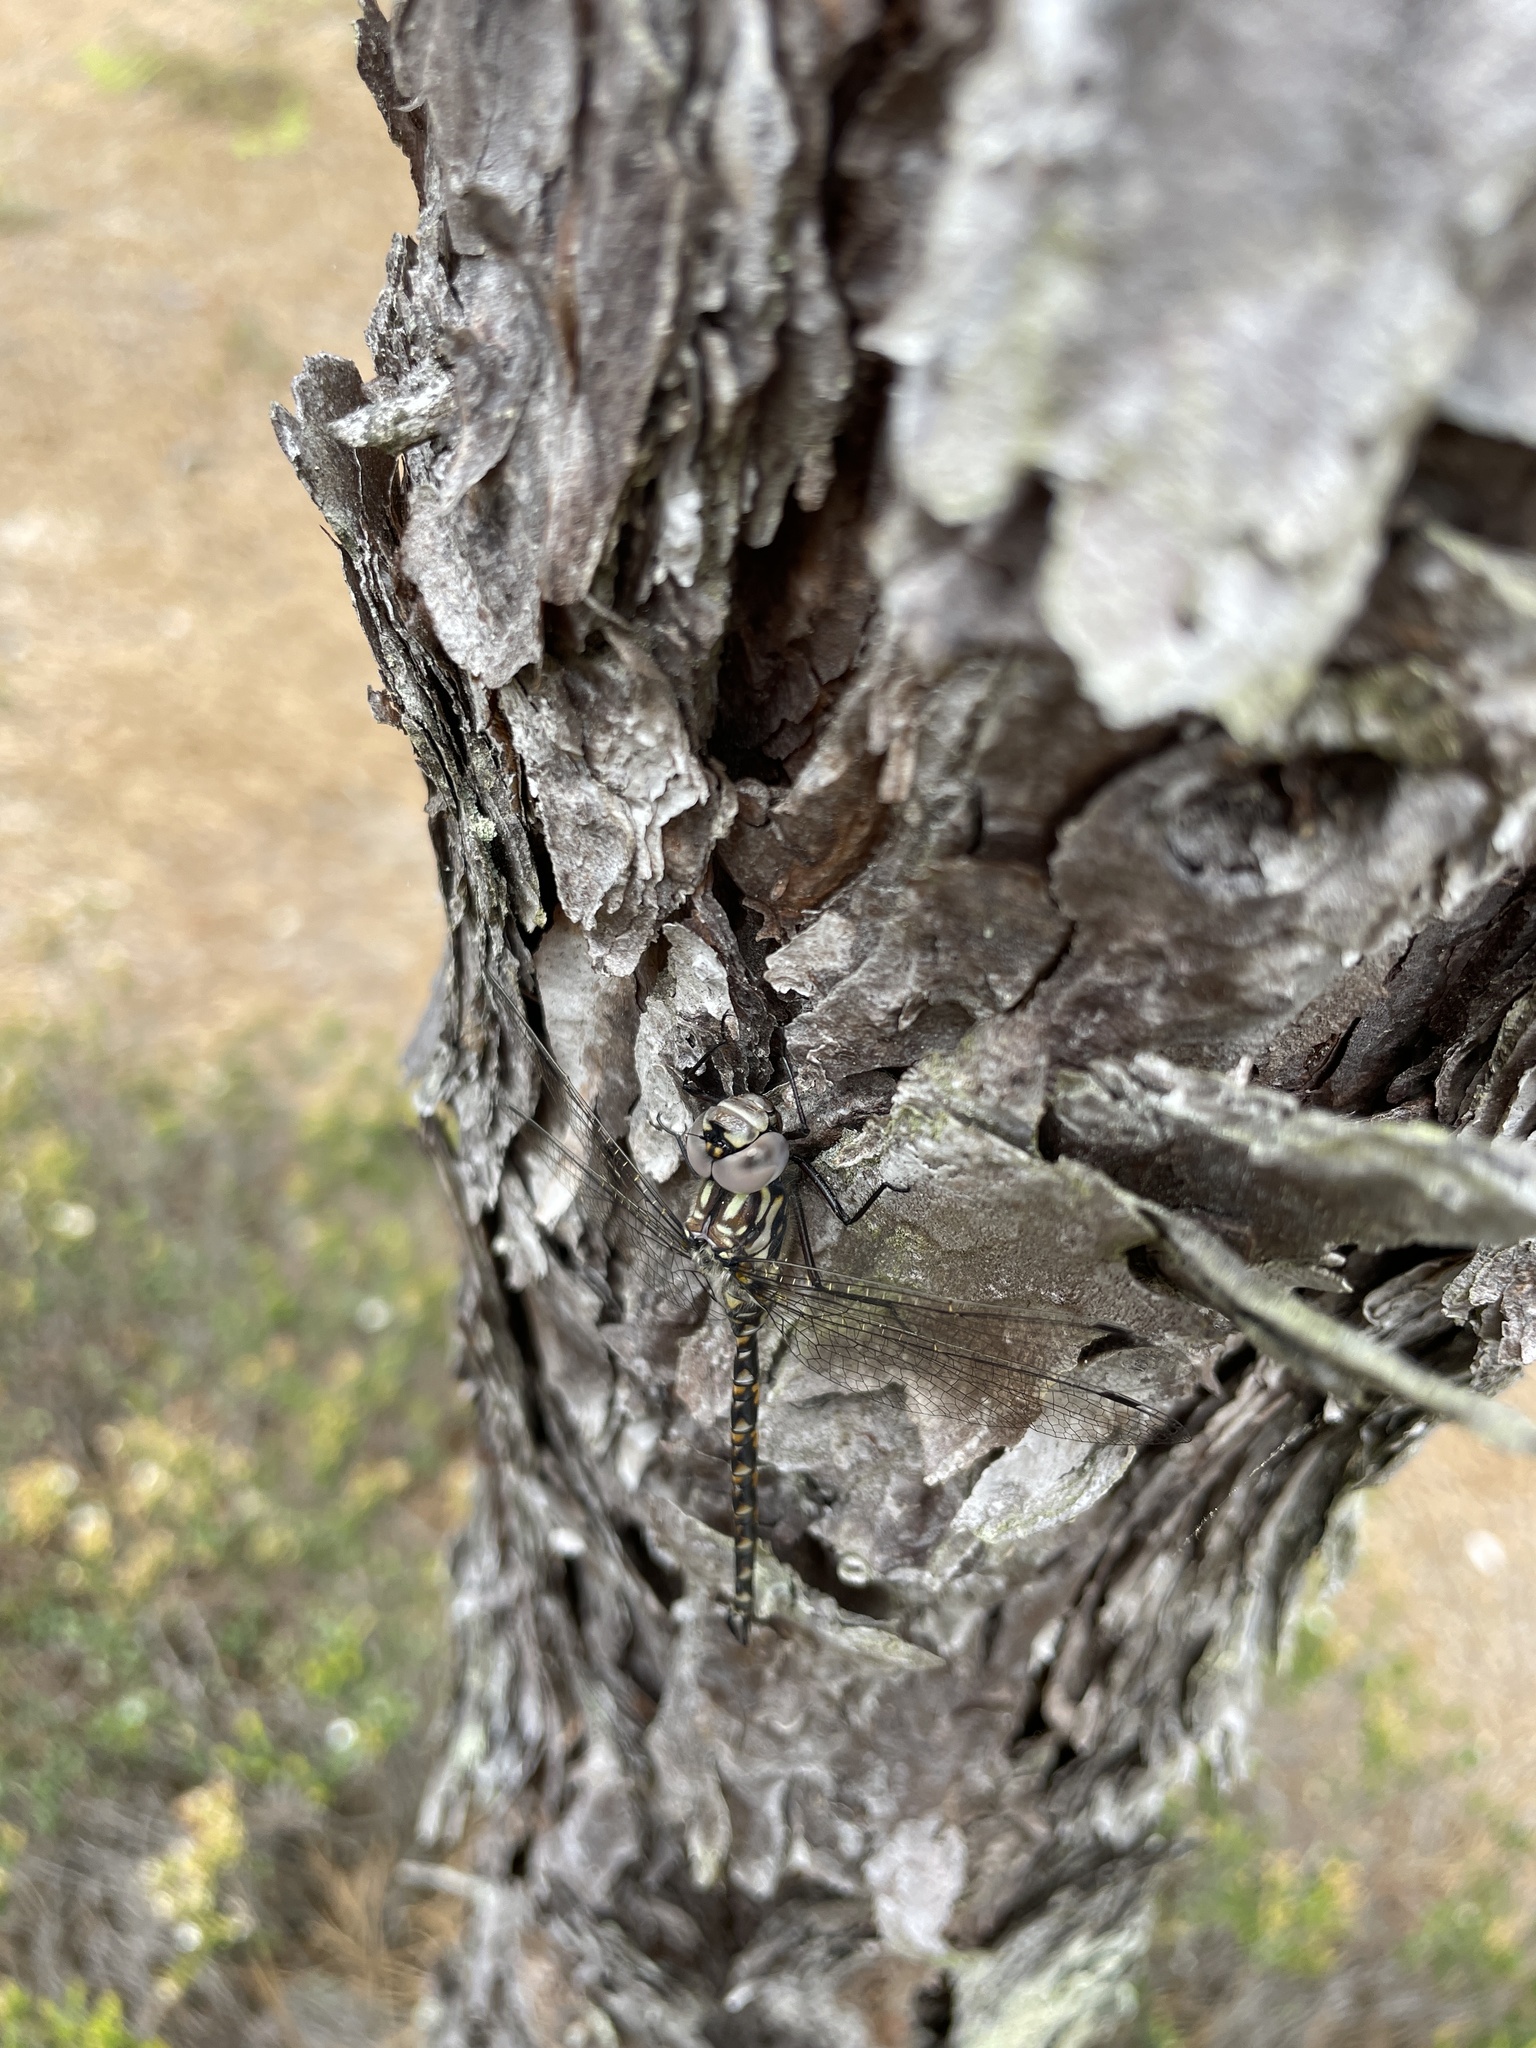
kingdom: Animalia
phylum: Arthropoda
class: Insecta
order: Odonata
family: Aeshnidae
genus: Gomphaeschna
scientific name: Gomphaeschna furcillata
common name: Harlequin darner
